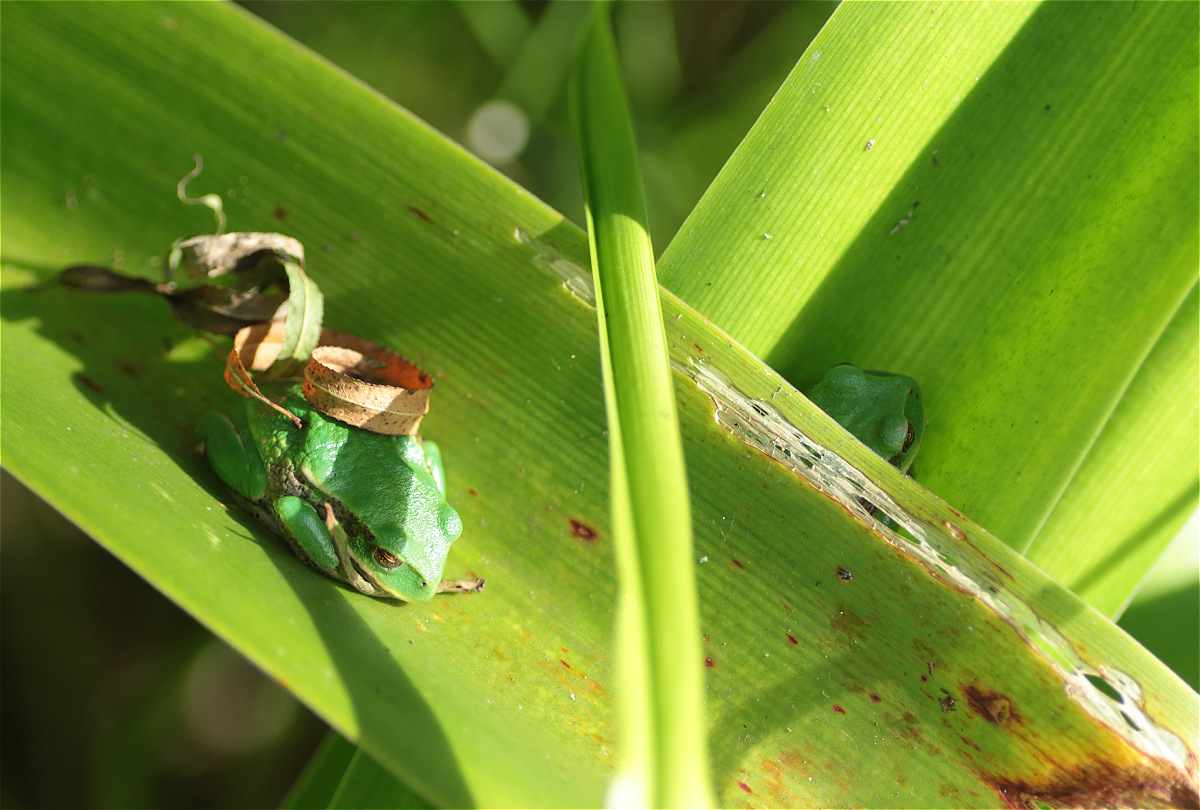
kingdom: Animalia
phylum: Chordata
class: Amphibia
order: Anura
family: Hemiphractidae
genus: Gastrotheca
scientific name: Gastrotheca cuencana
